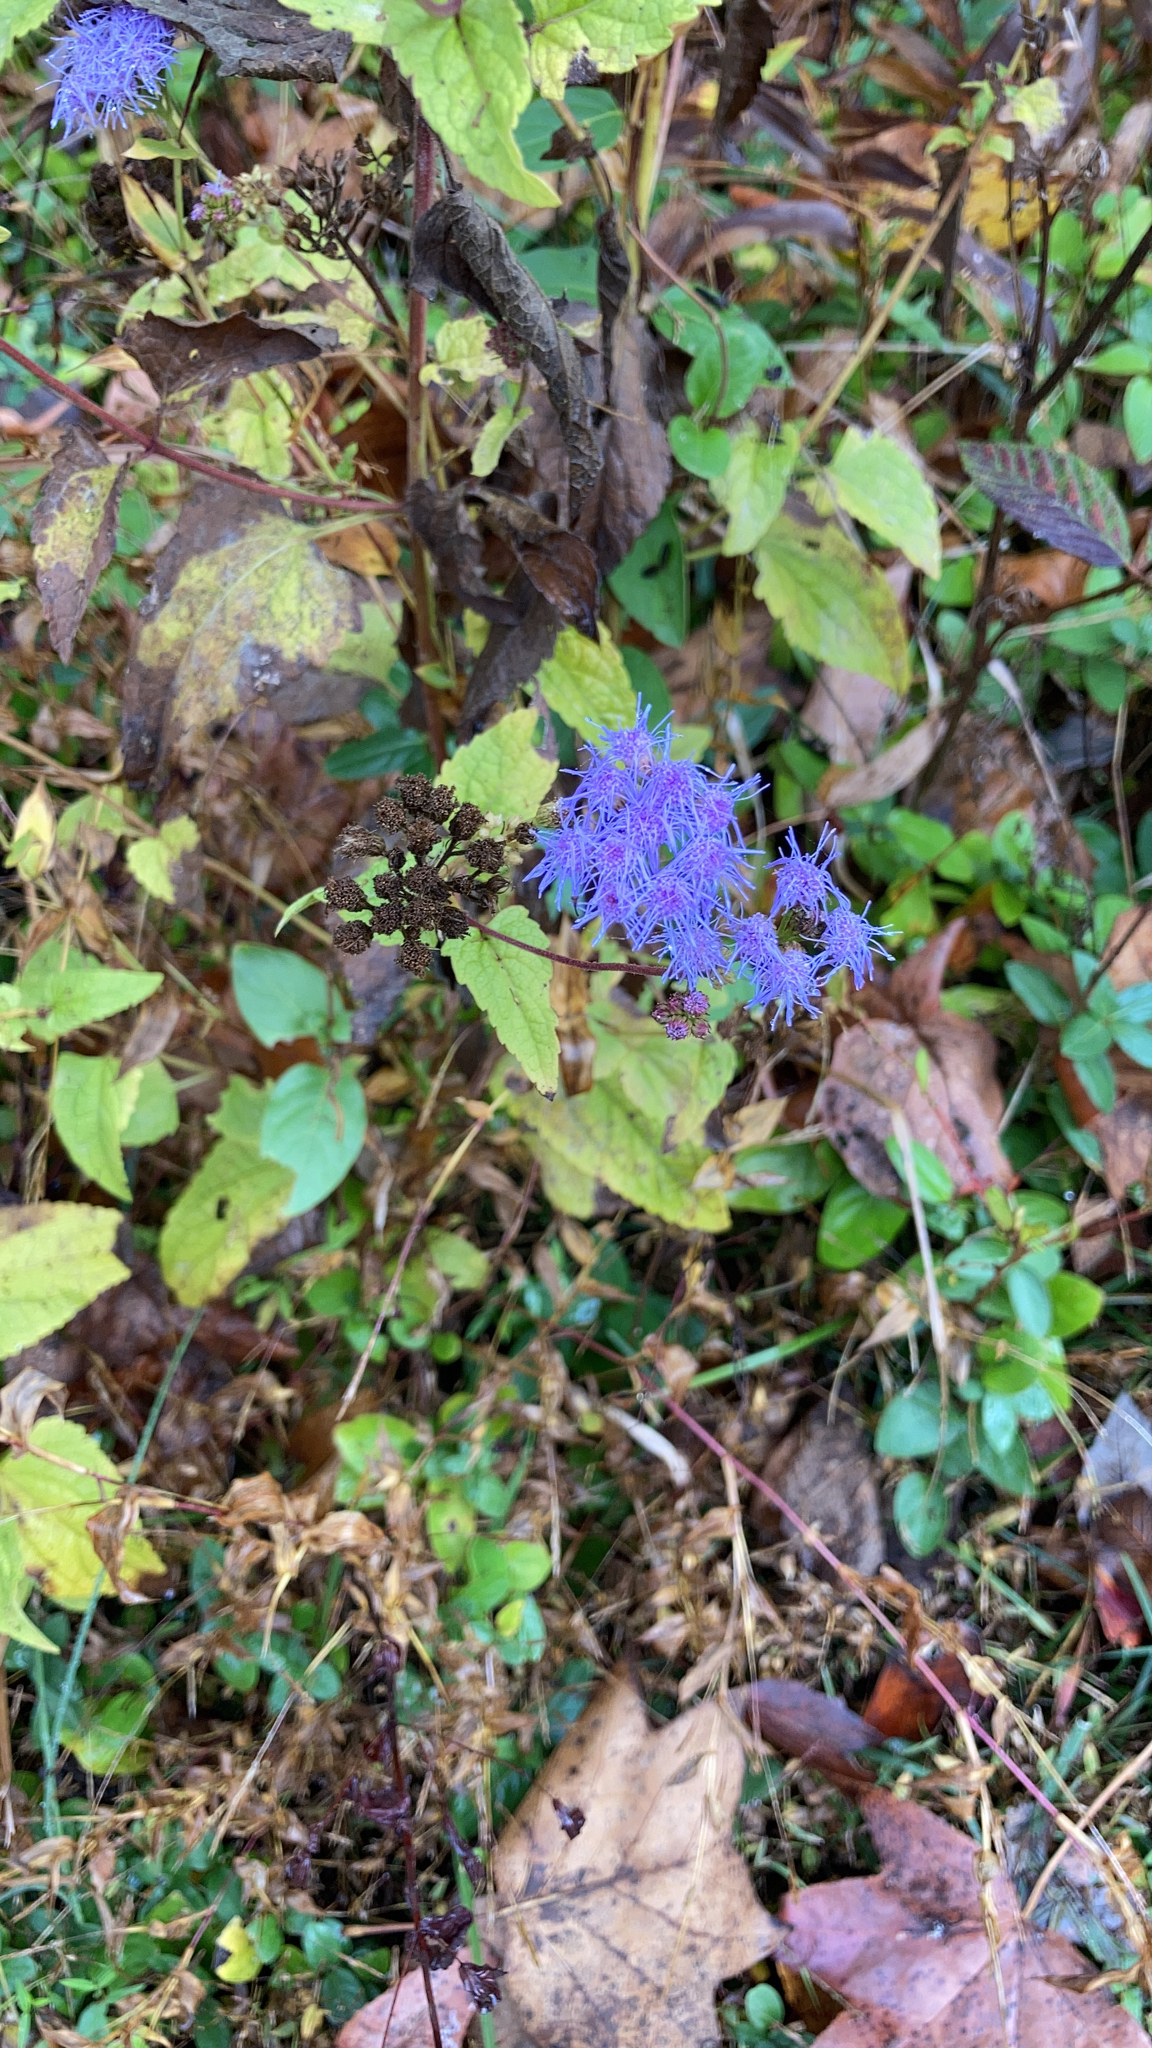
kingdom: Plantae
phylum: Tracheophyta
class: Magnoliopsida
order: Asterales
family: Asteraceae
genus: Conoclinium
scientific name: Conoclinium coelestinum
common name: Blue mistflower
